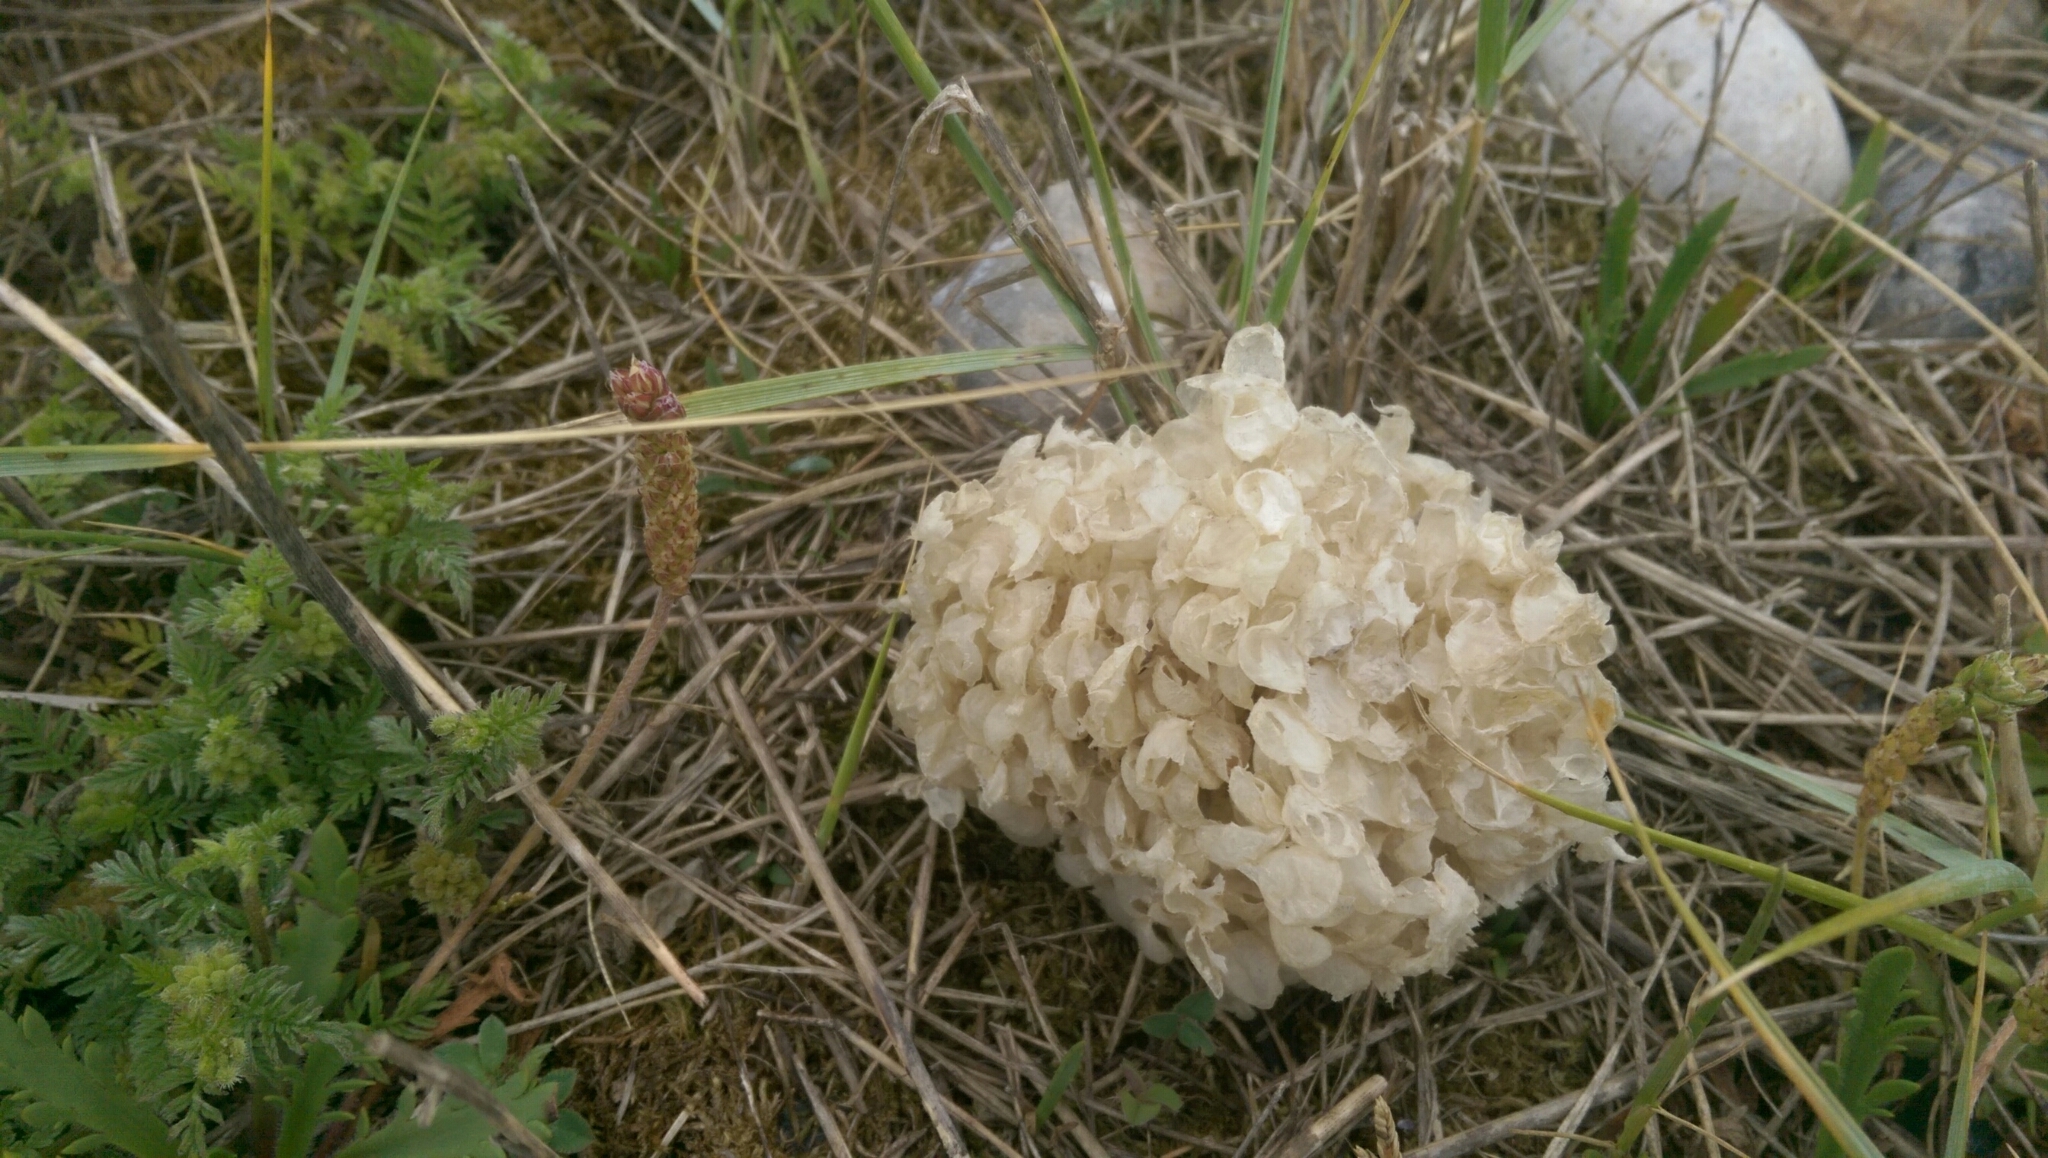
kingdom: Animalia
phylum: Mollusca
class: Gastropoda
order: Neogastropoda
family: Buccinidae
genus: Buccinum
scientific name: Buccinum undatum
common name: Common whelk
